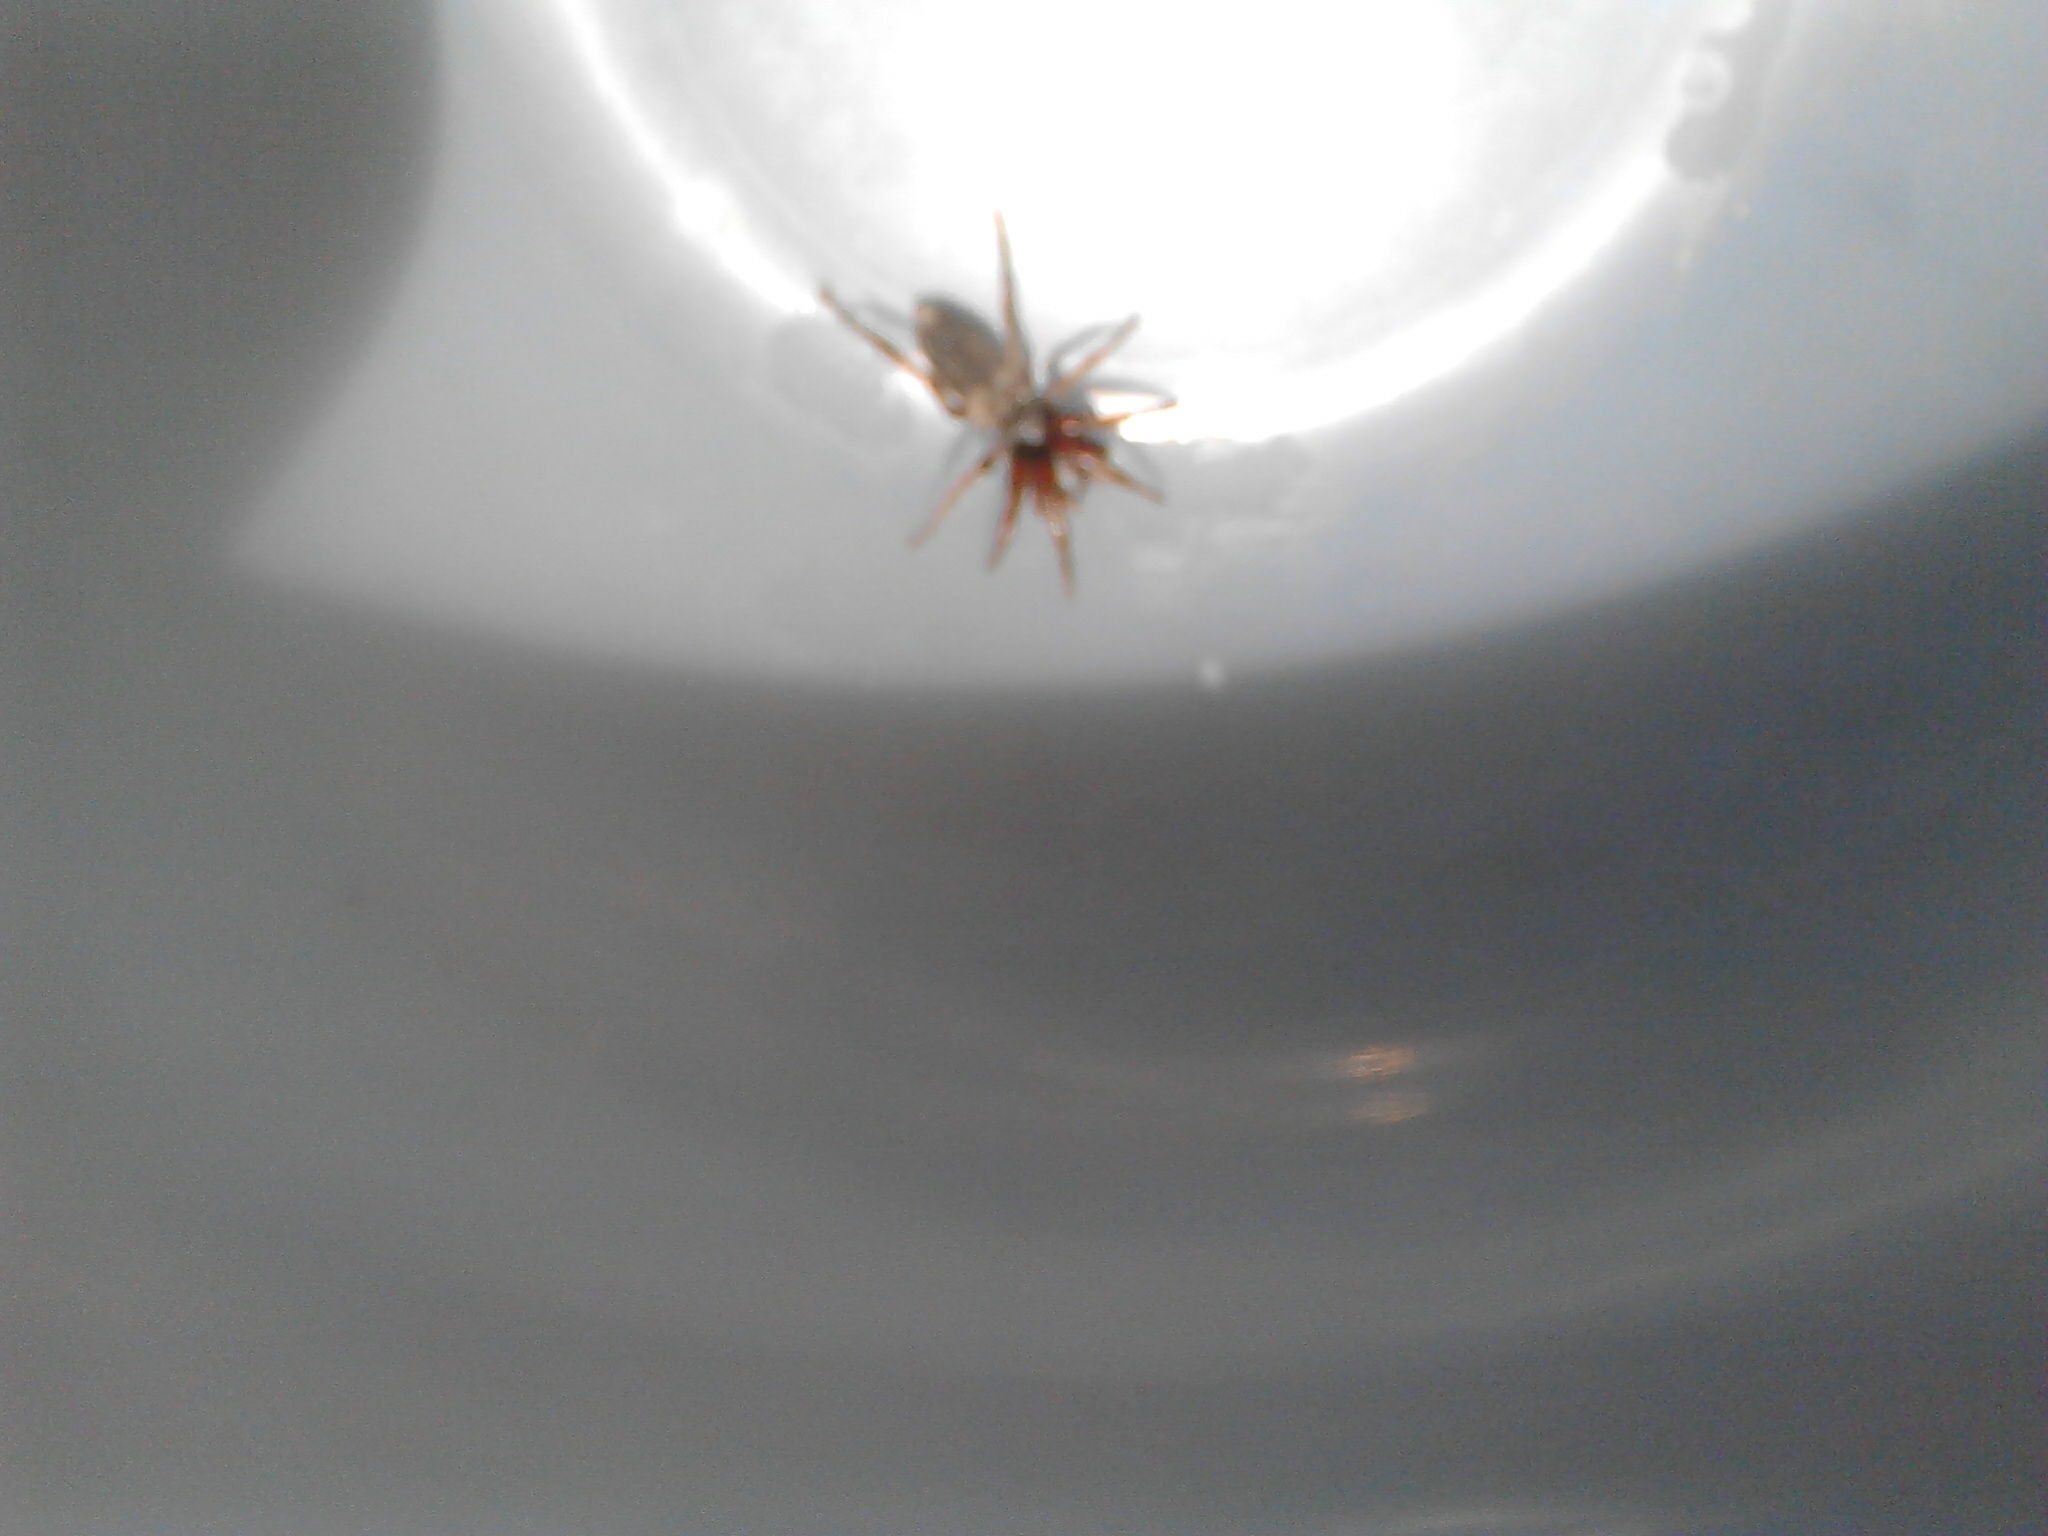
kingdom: Animalia
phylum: Arthropoda
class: Arachnida
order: Araneae
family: Lamponidae
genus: Lampona
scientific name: Lampona cylindrata
